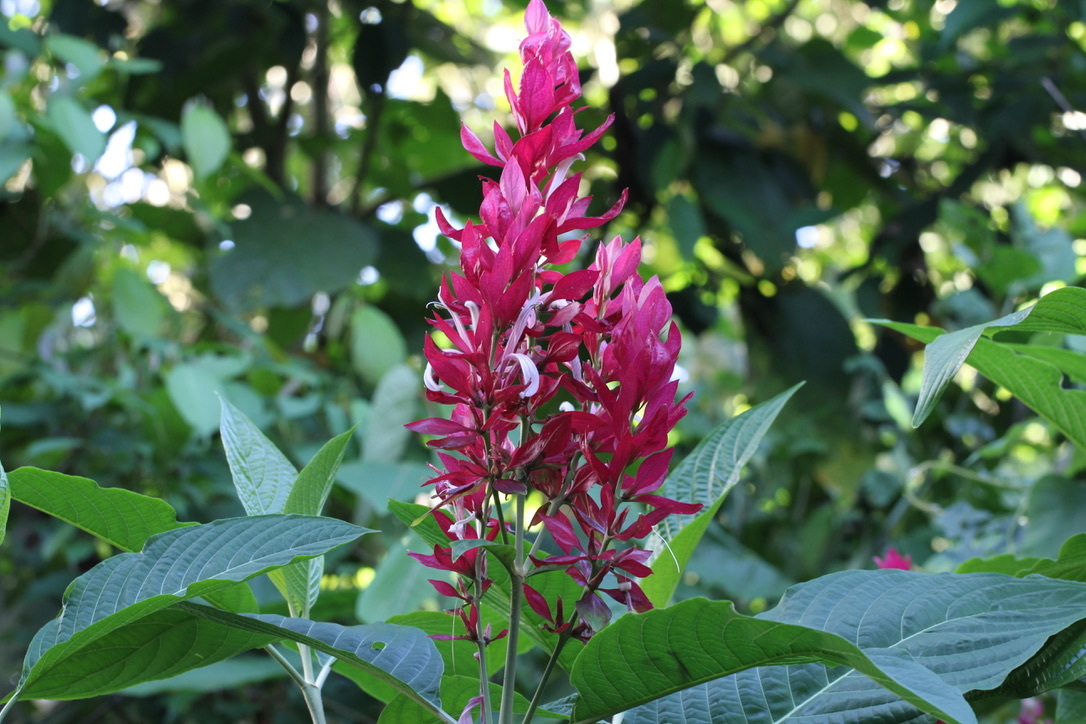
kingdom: Plantae
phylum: Tracheophyta
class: Magnoliopsida
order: Lamiales
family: Acanthaceae
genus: Megaskepasma
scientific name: Megaskepasma erythrochlamys
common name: Brazilian red-cloak
